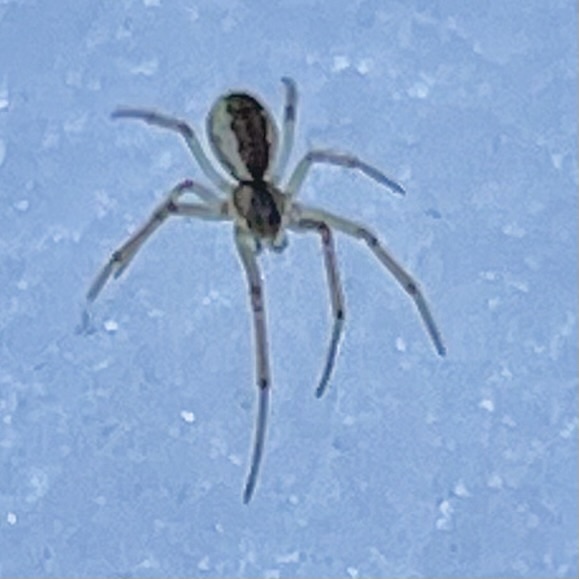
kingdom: Animalia
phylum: Arthropoda
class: Arachnida
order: Araneae
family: Linyphiidae
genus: Neriene
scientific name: Neriene peltata
